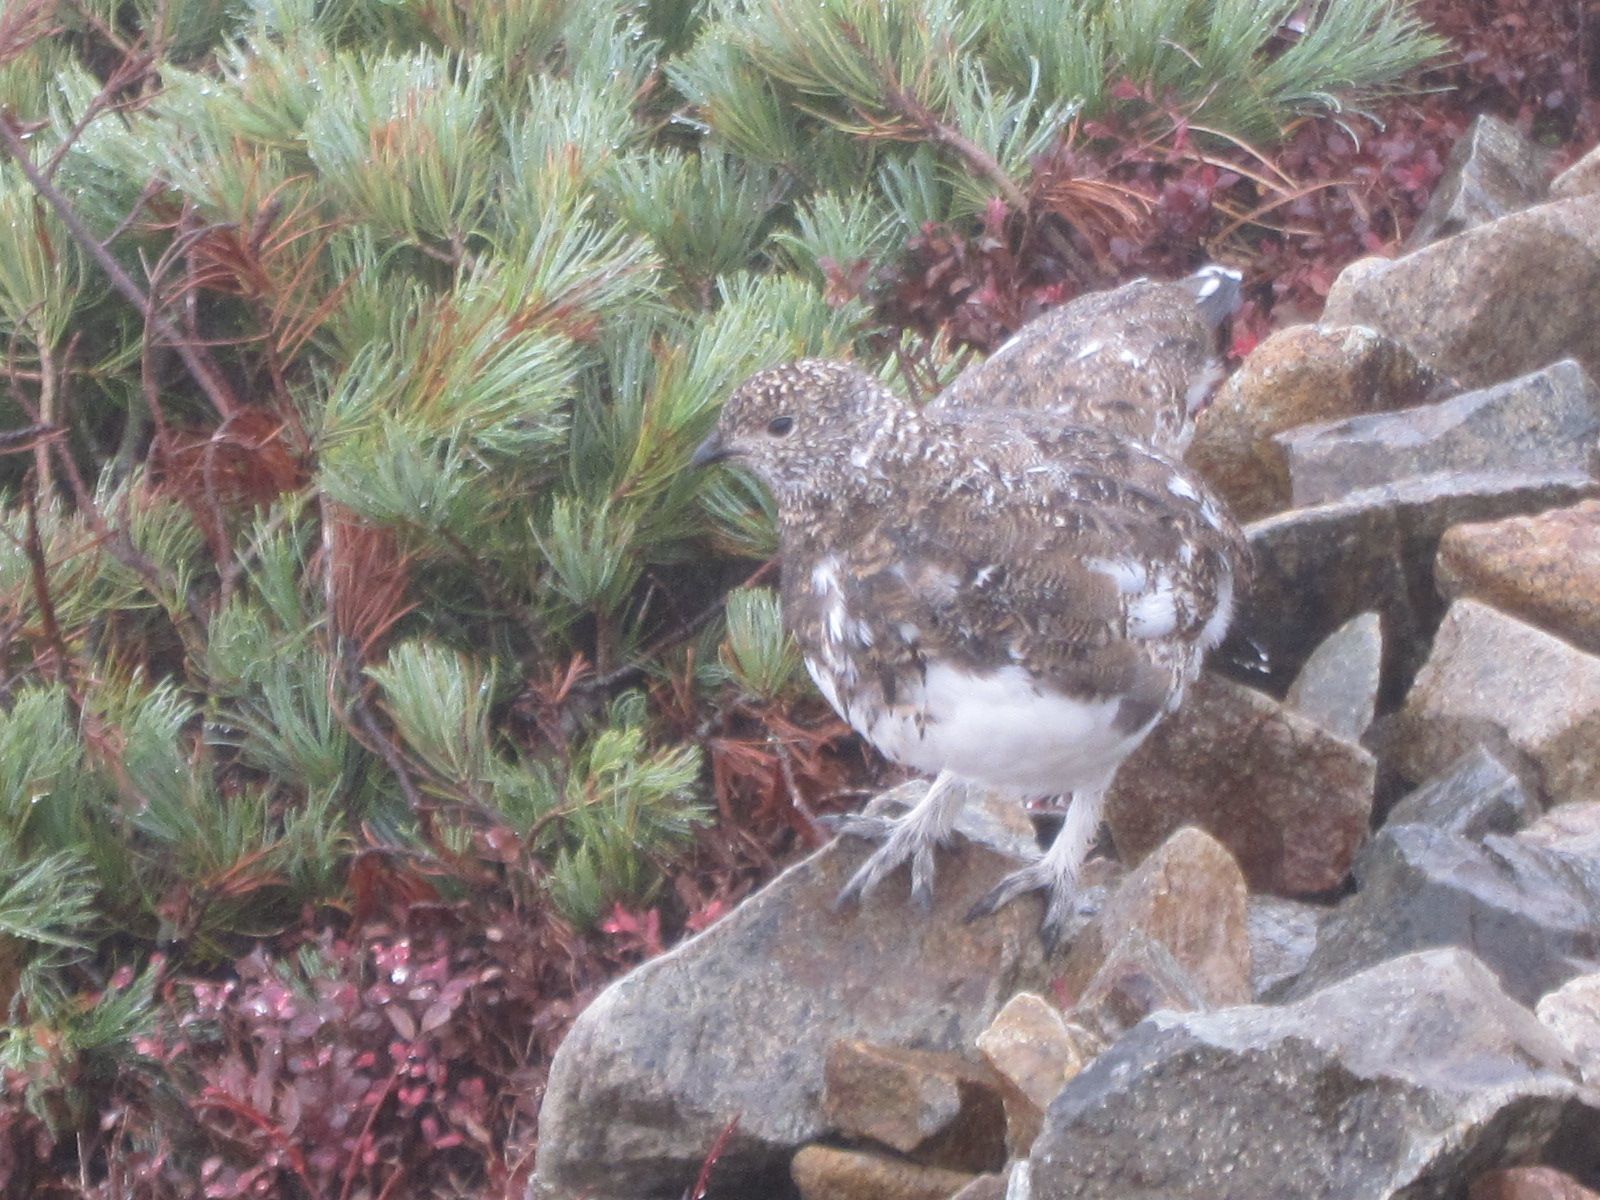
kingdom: Animalia
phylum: Chordata
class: Aves
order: Galliformes
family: Phasianidae
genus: Lagopus
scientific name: Lagopus muta
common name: Rock ptarmigan
